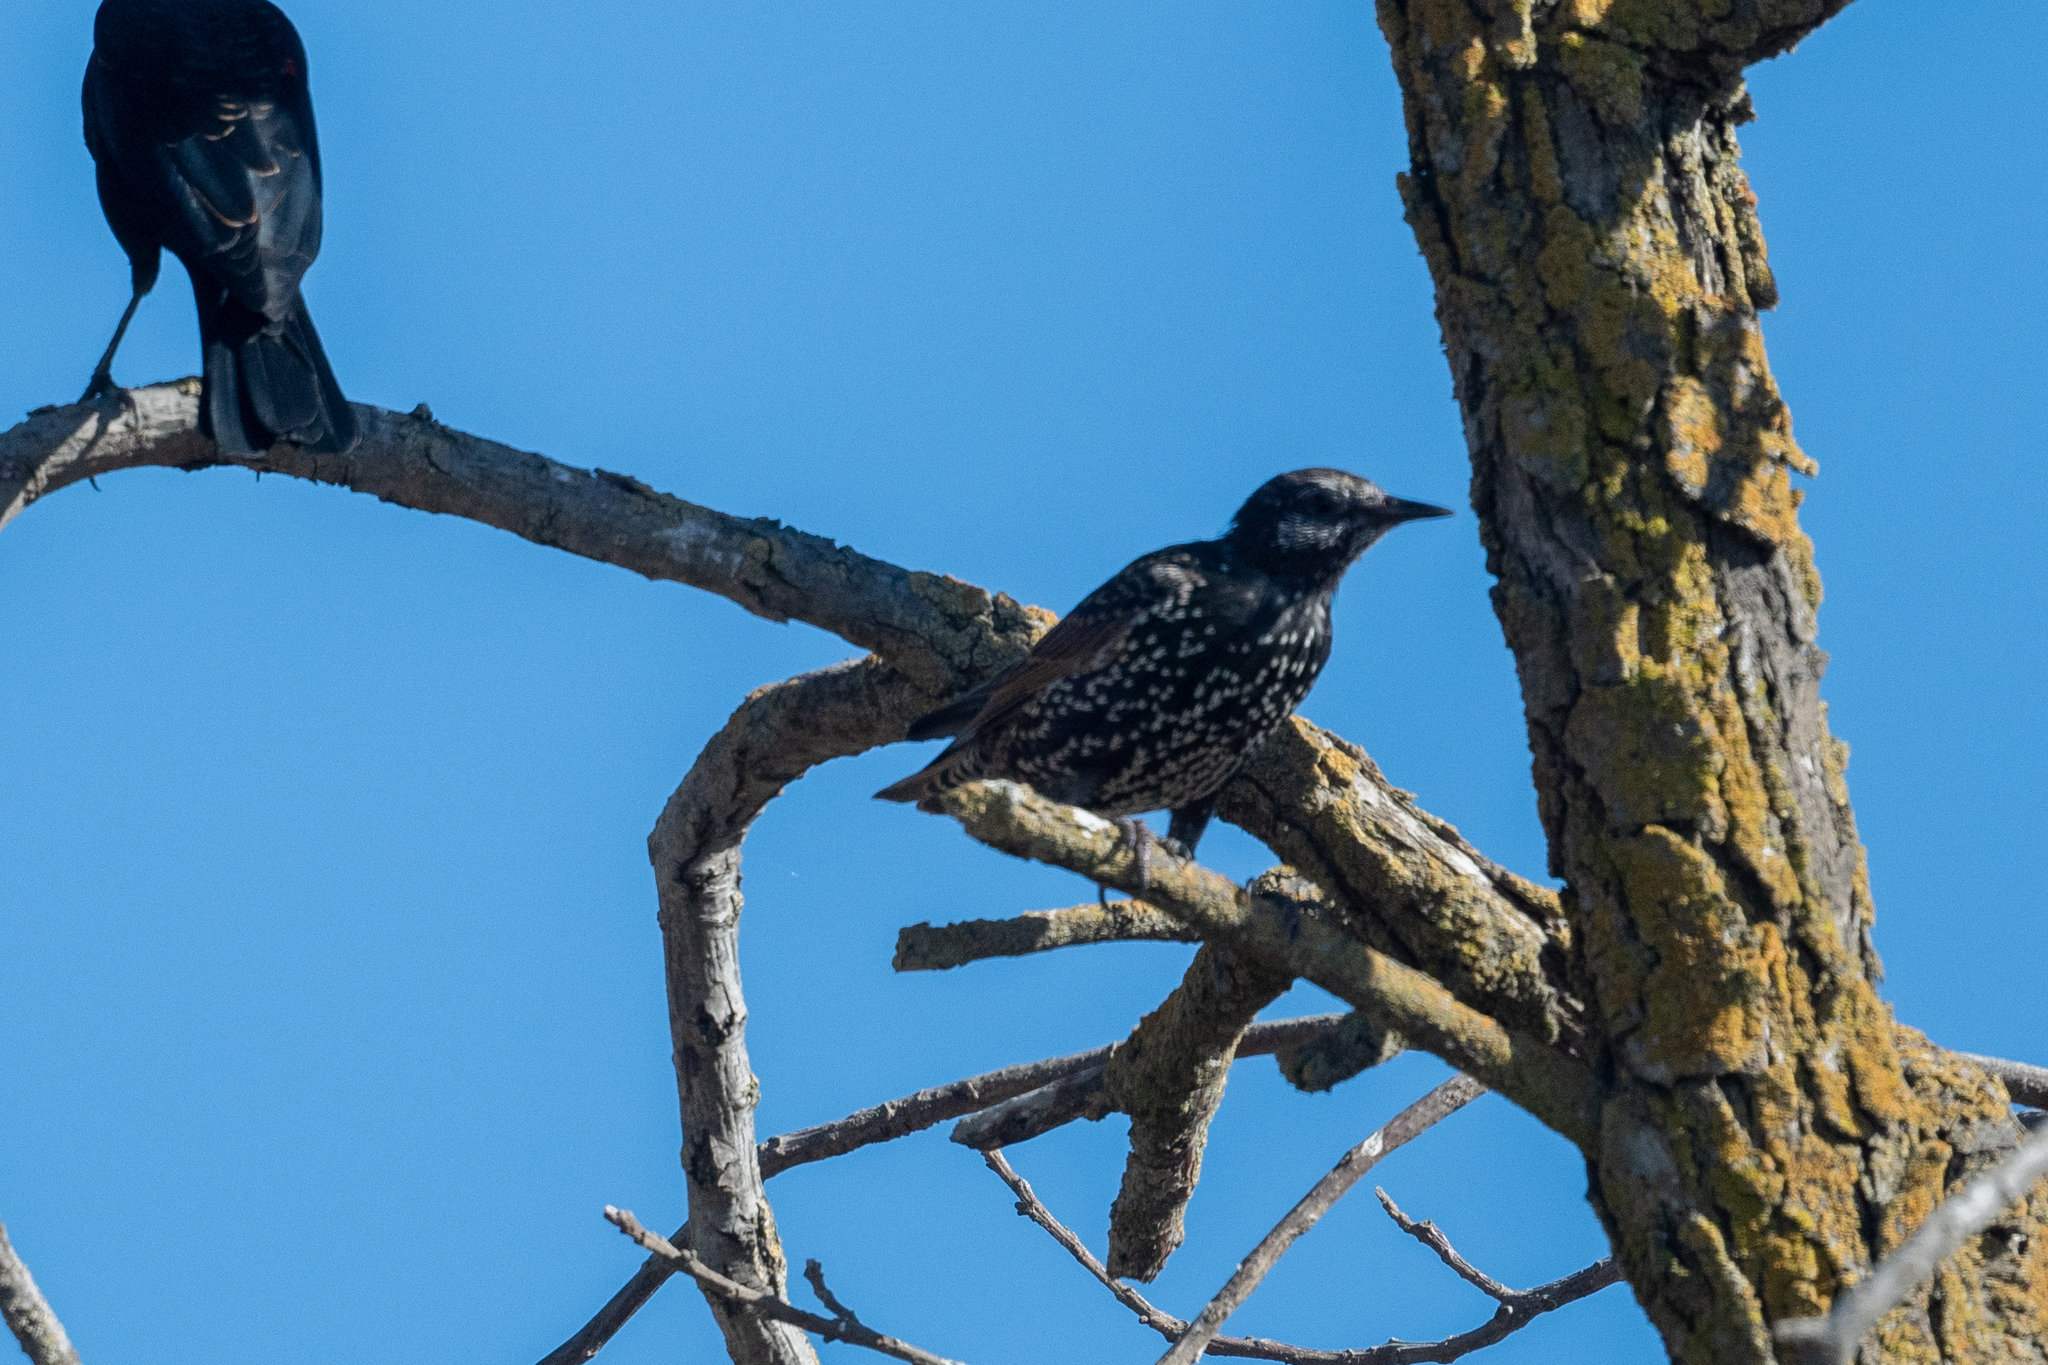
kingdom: Animalia
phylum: Chordata
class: Aves
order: Passeriformes
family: Sturnidae
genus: Sturnus
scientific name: Sturnus vulgaris
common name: Common starling
